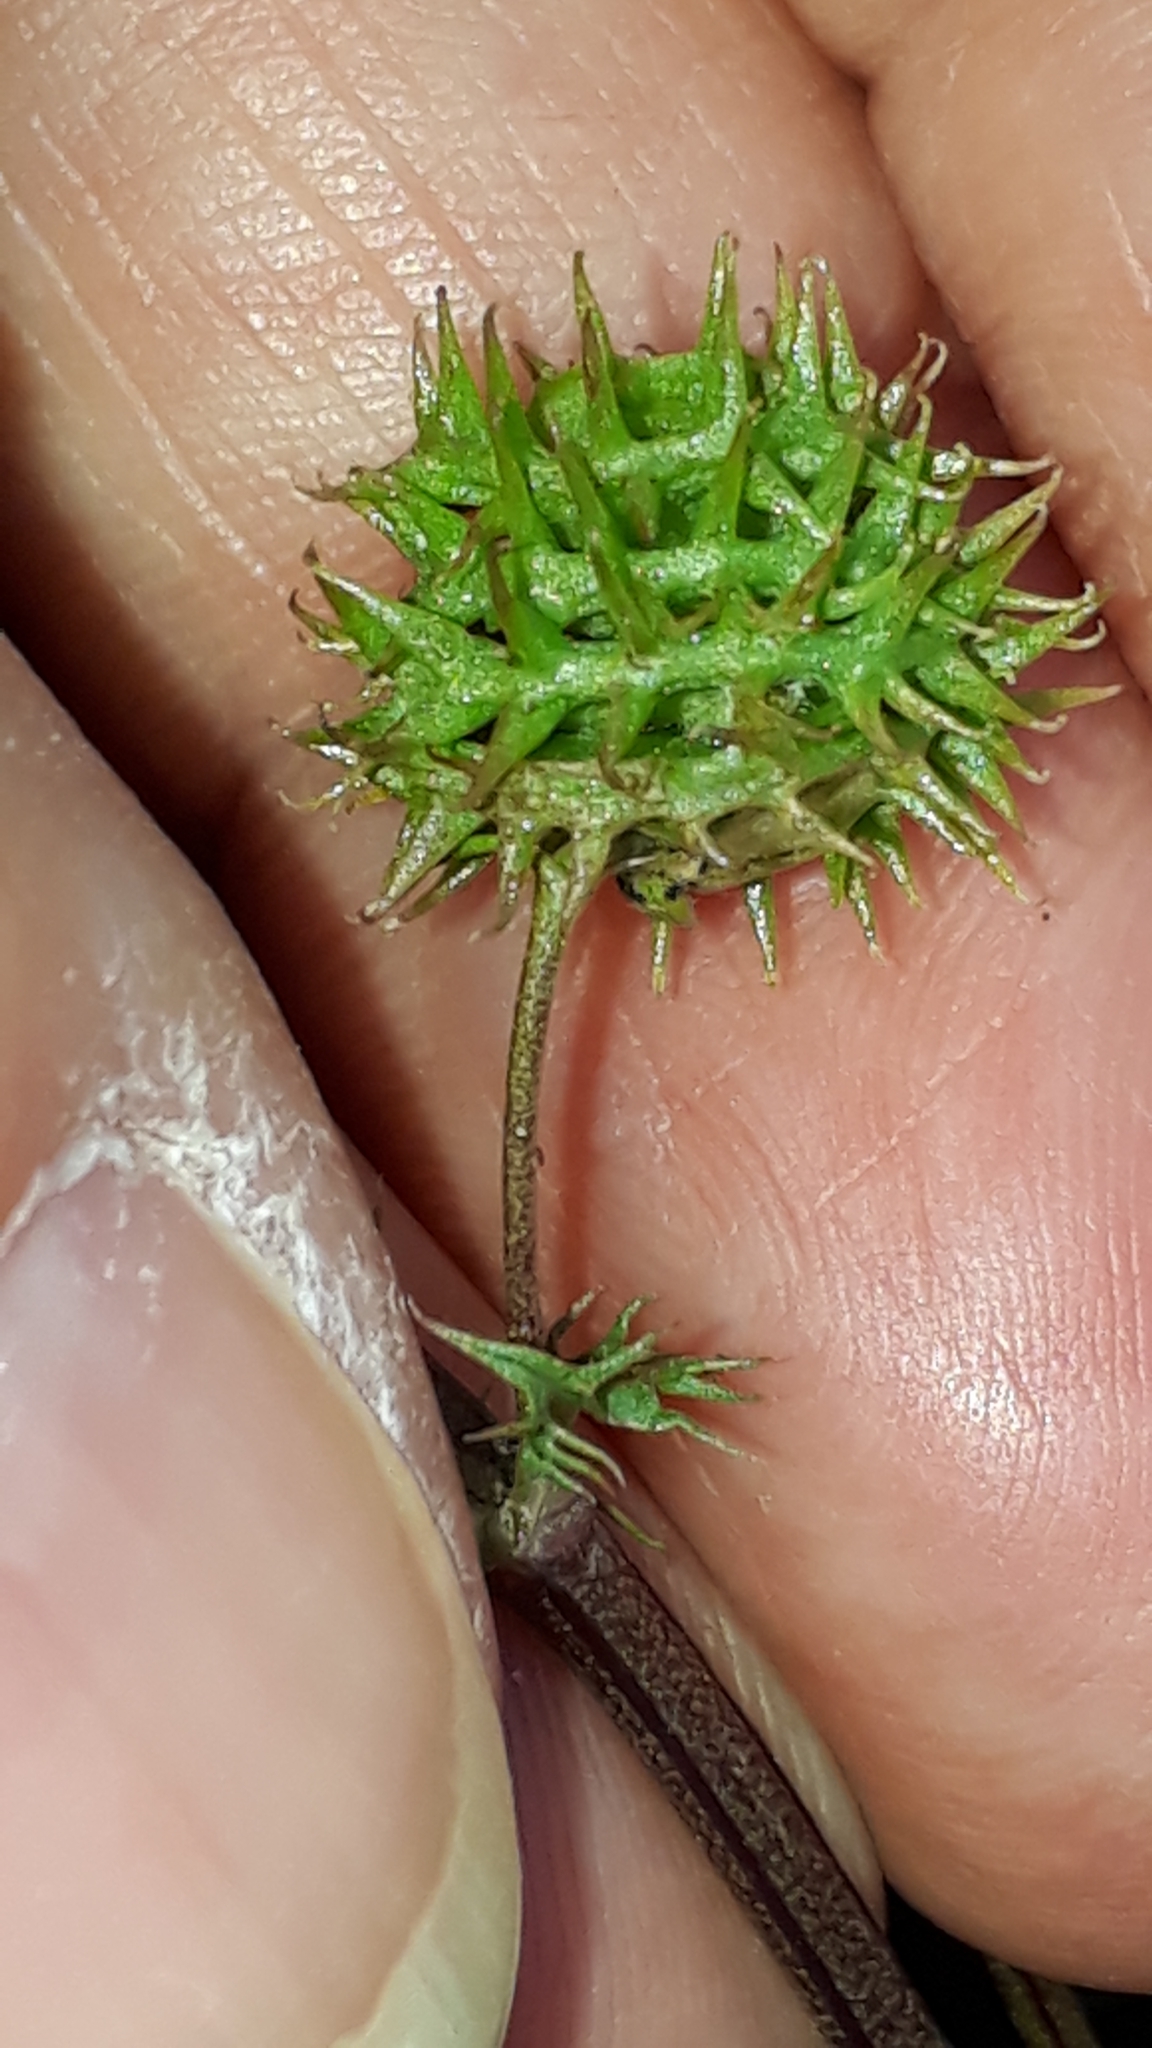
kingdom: Plantae
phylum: Tracheophyta
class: Magnoliopsida
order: Fabales
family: Fabaceae
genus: Medicago
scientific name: Medicago polymorpha
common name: Burclover
